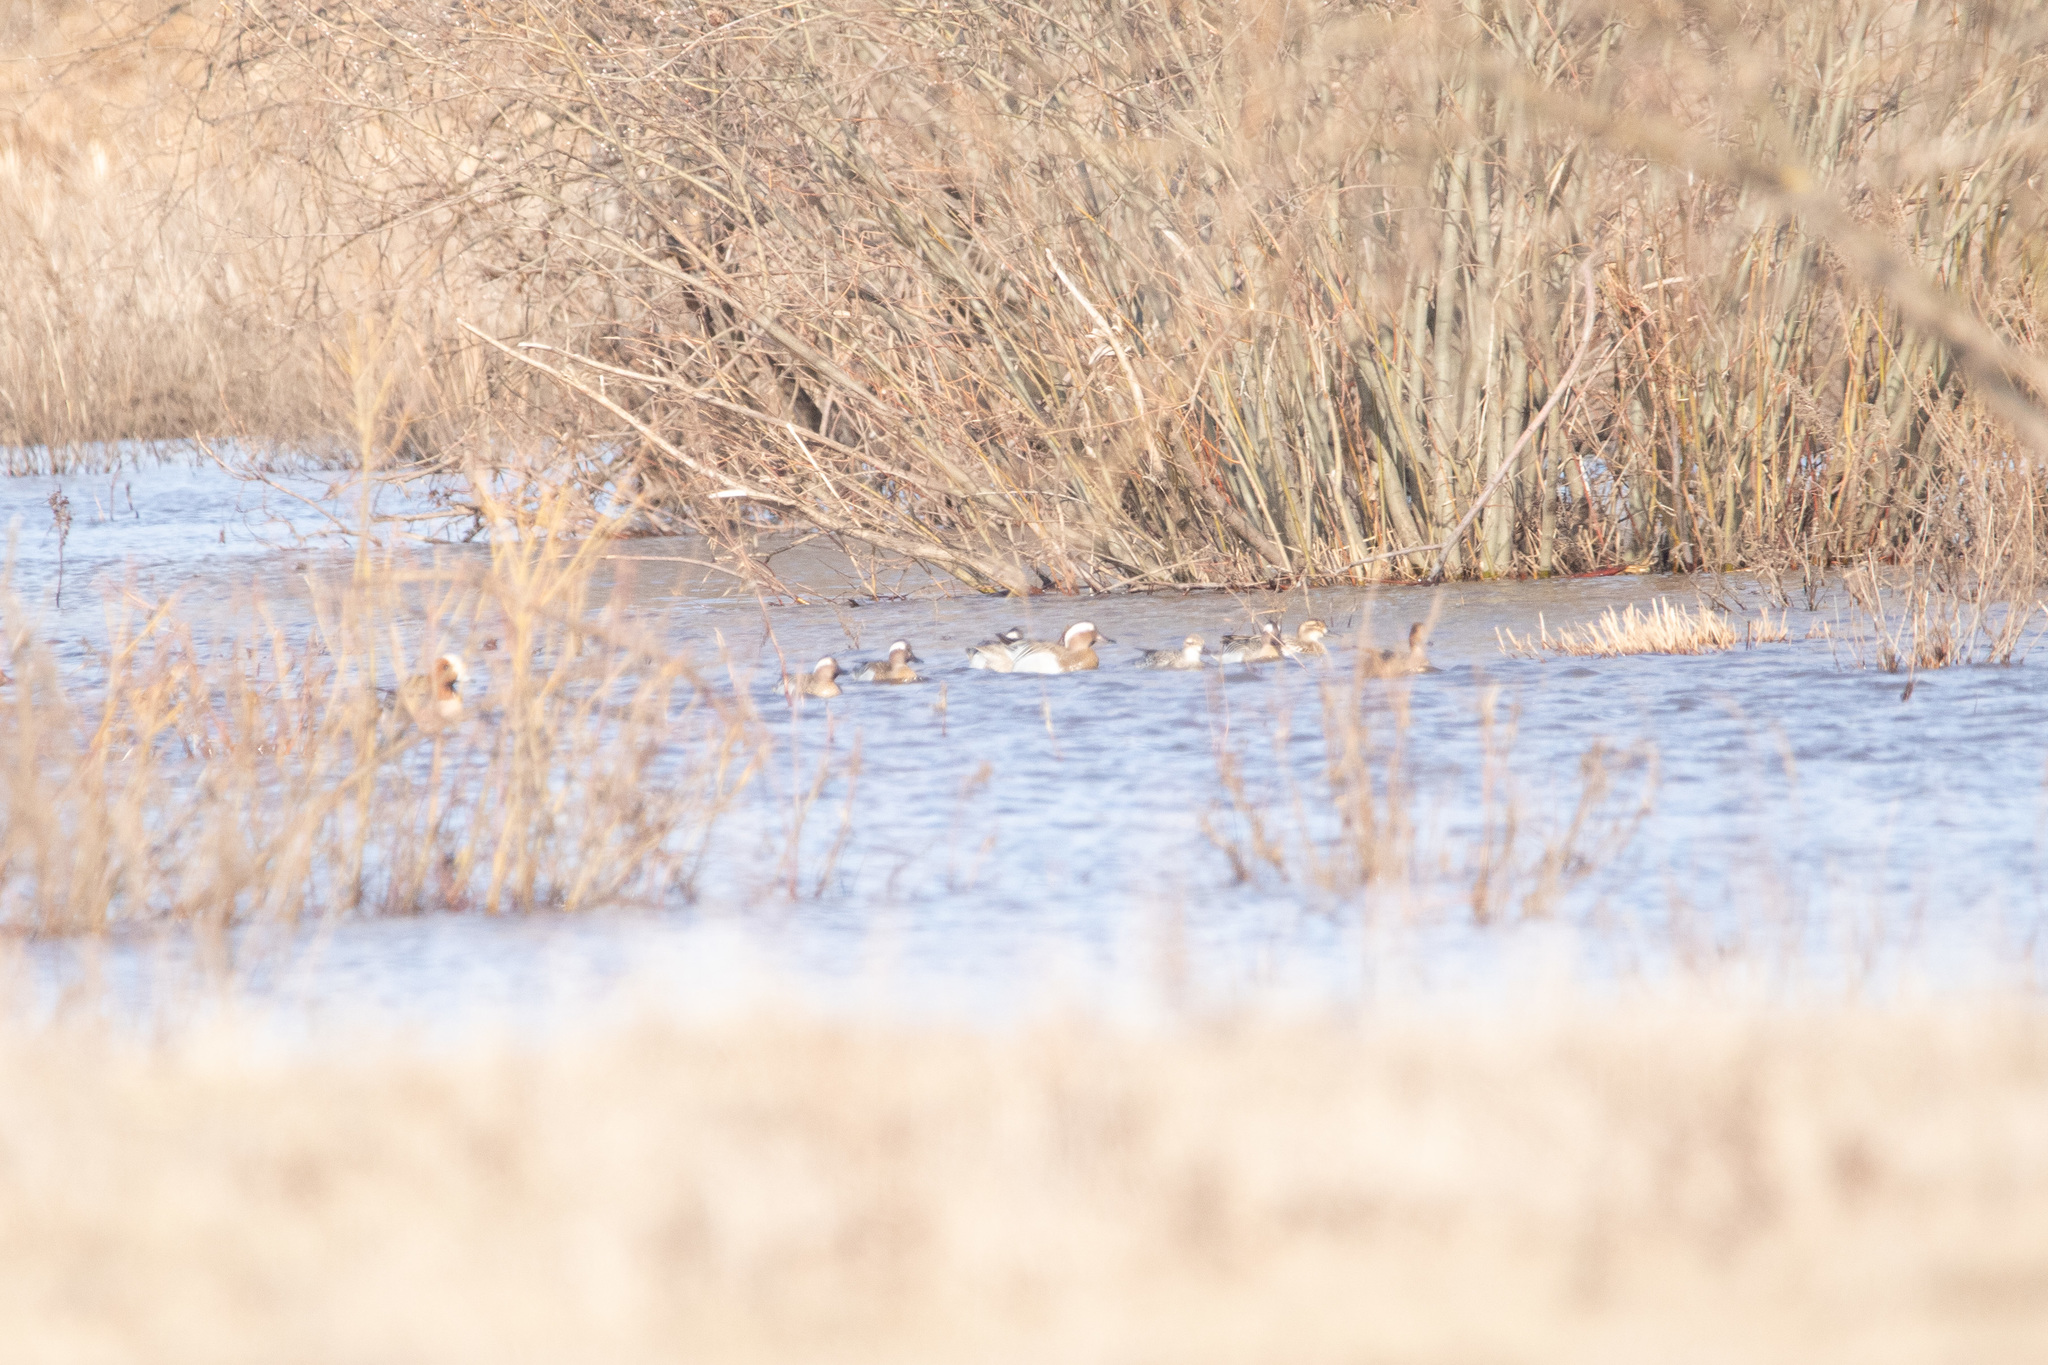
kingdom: Animalia
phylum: Chordata
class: Aves
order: Anseriformes
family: Anatidae
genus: Spatula
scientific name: Spatula querquedula
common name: Garganey
